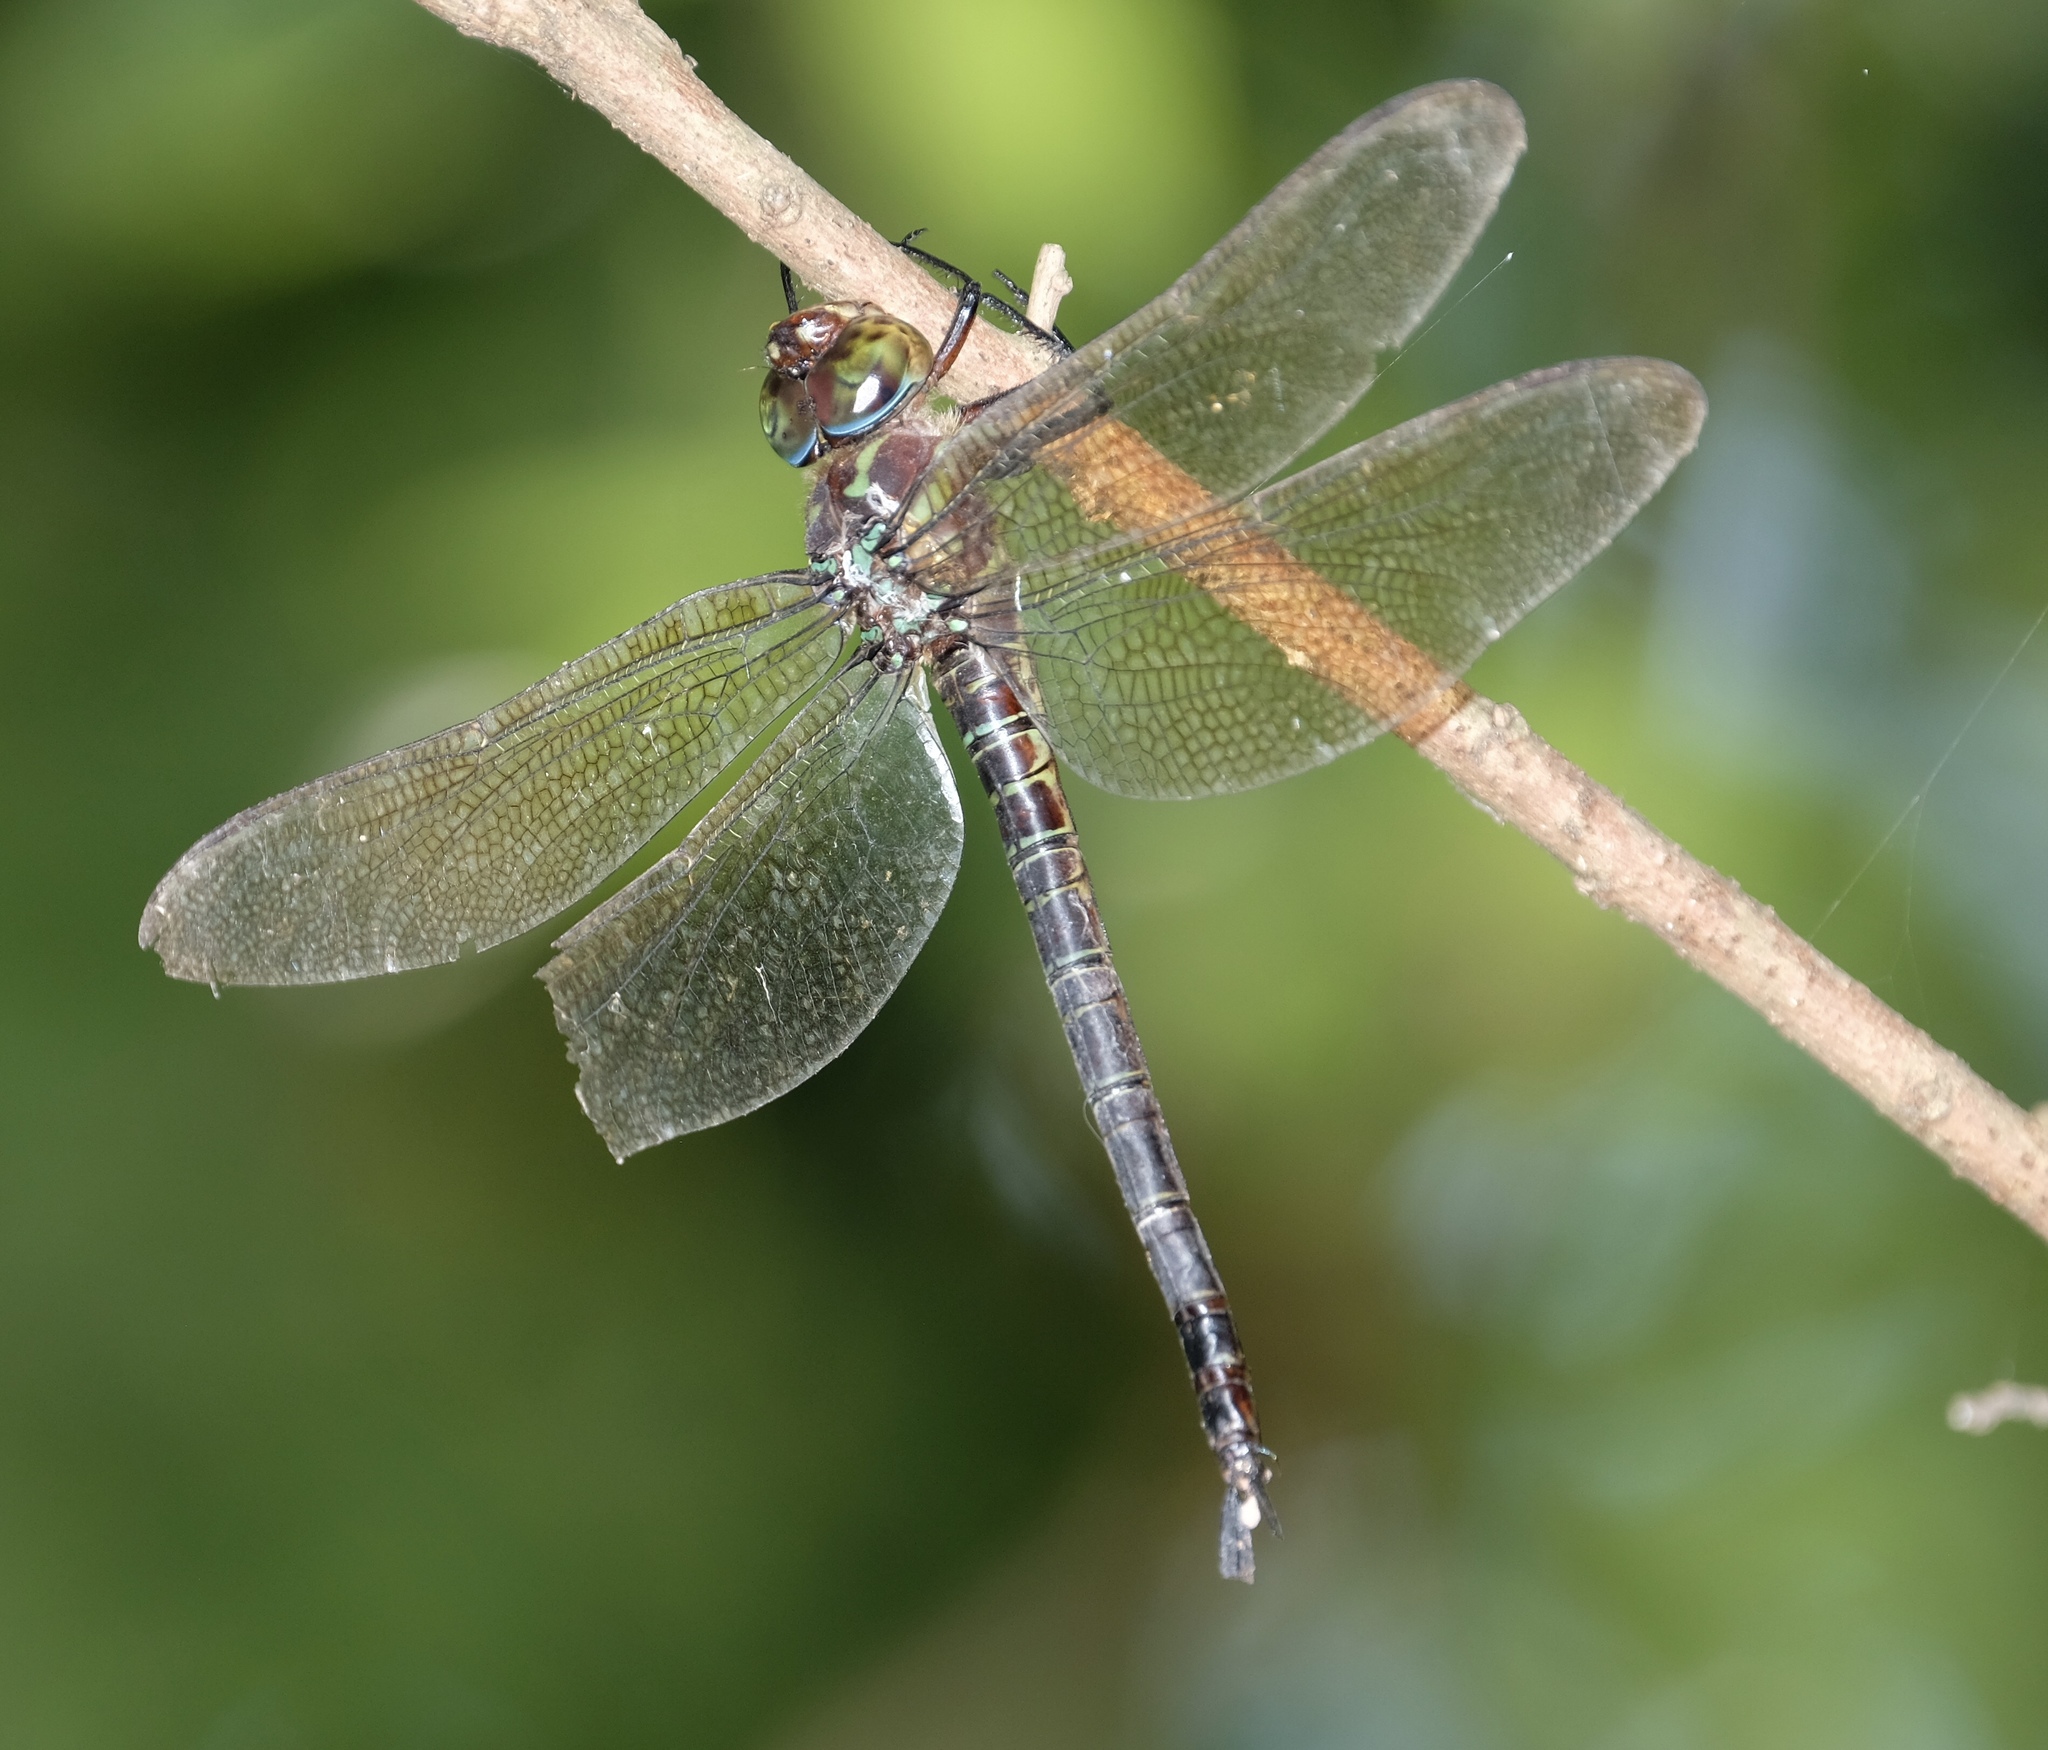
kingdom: Animalia
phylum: Arthropoda
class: Insecta
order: Odonata
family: Aeshnidae
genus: Epiaeschna
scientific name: Epiaeschna heros
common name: Swamp darner
